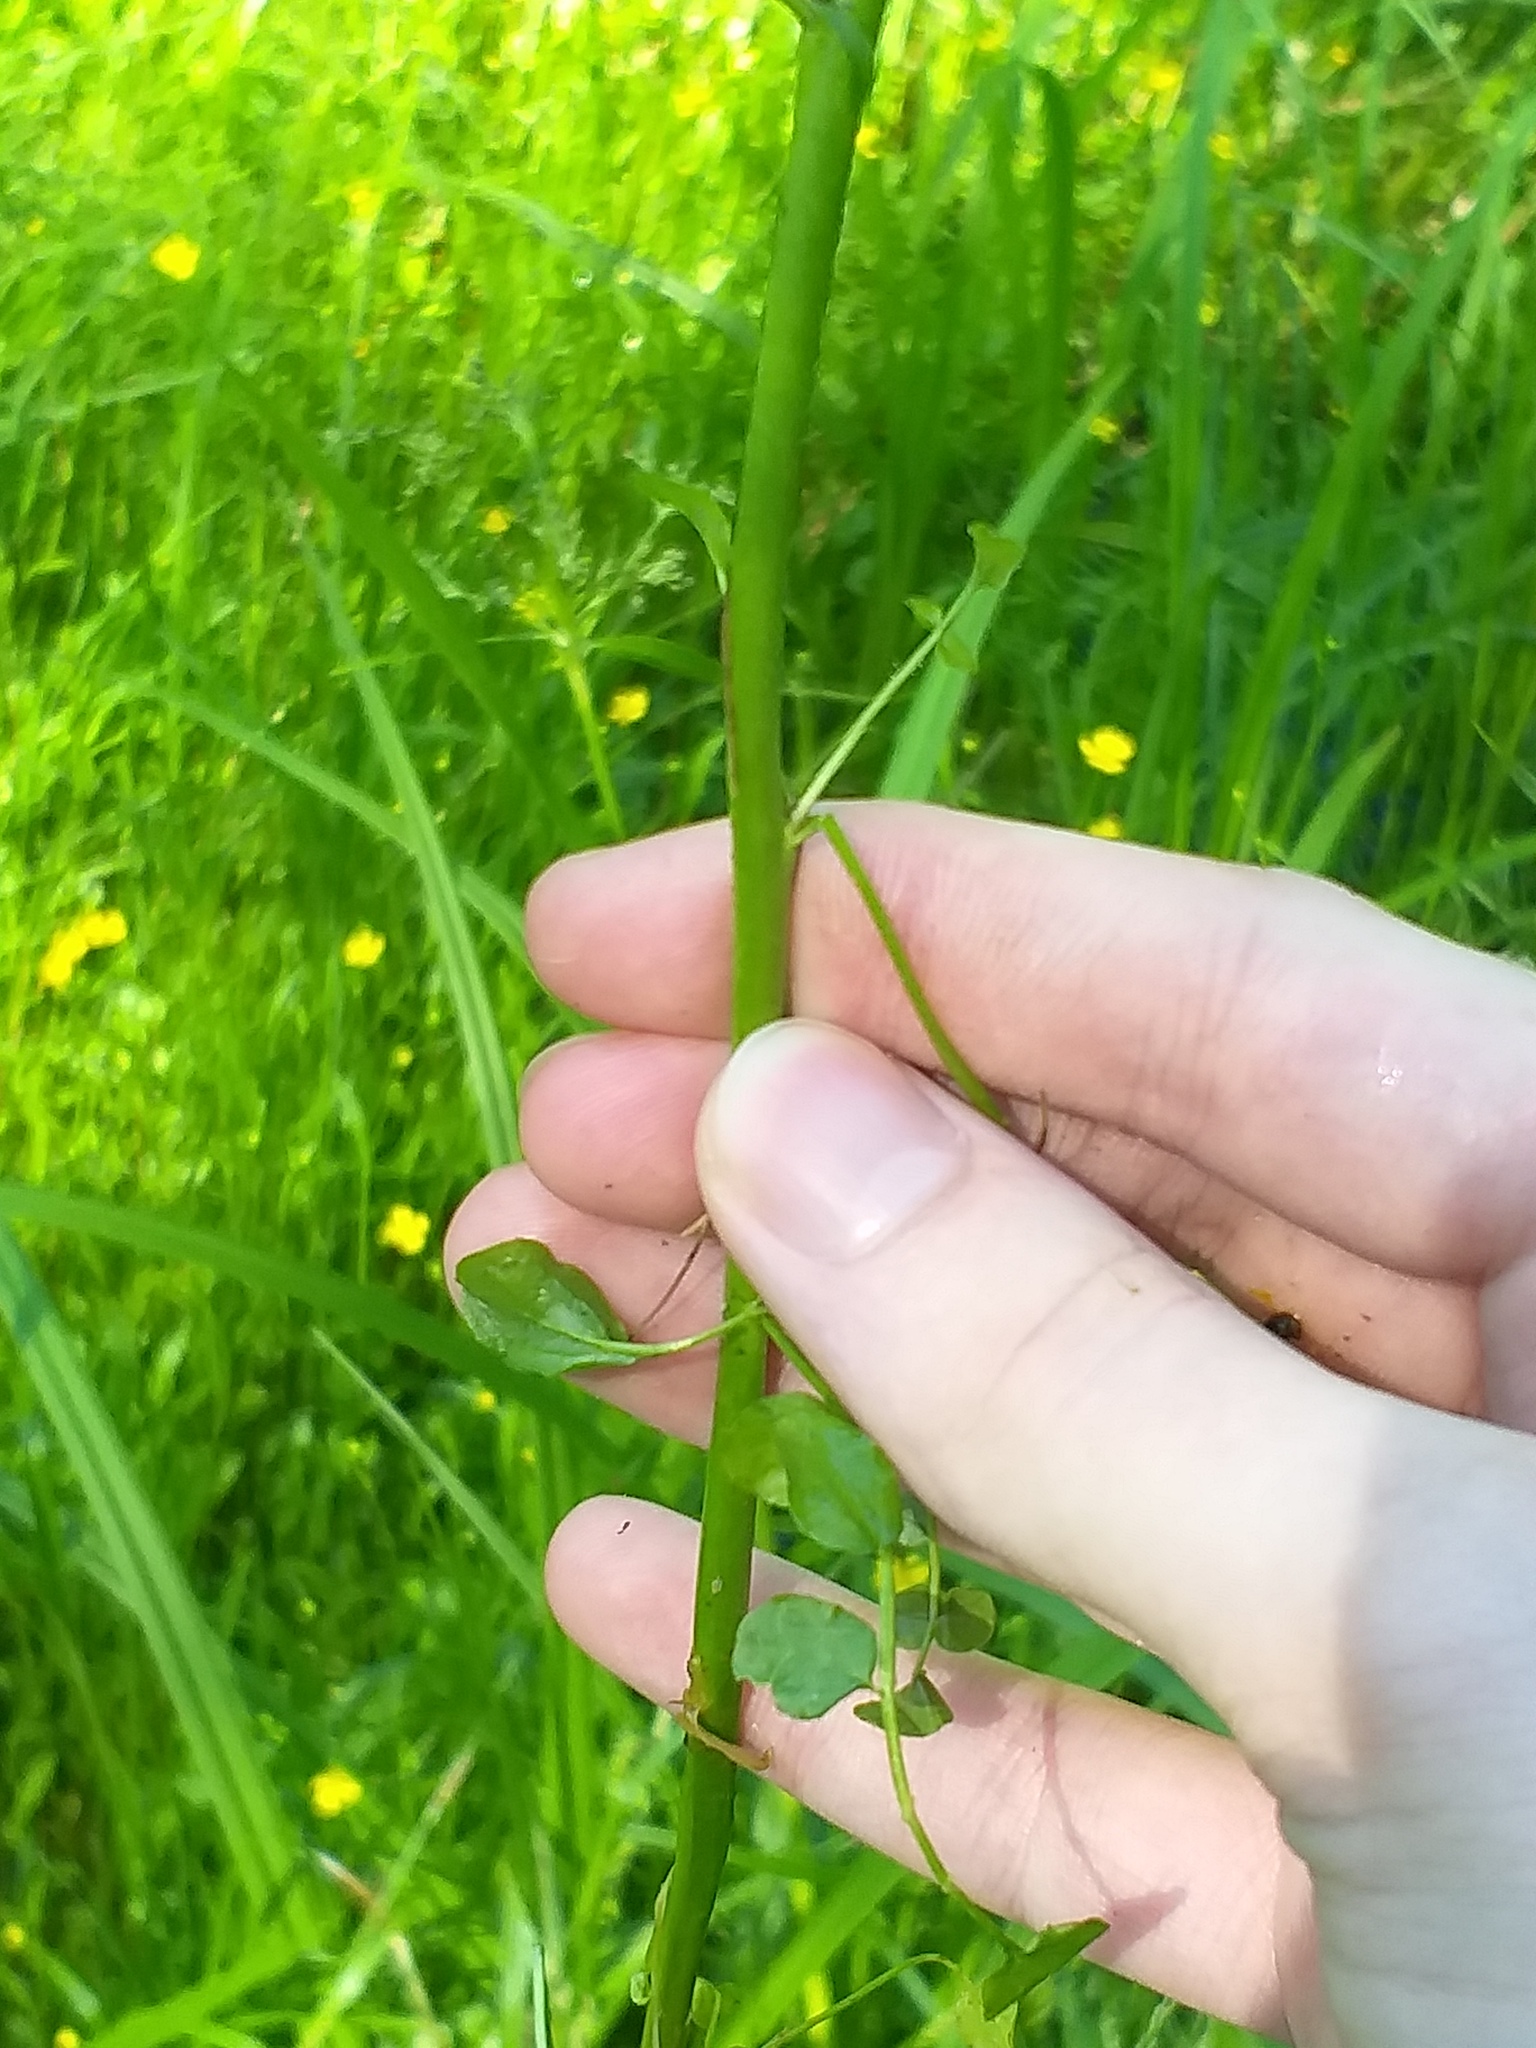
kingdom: Plantae
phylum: Tracheophyta
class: Magnoliopsida
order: Brassicales
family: Brassicaceae
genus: Cardamine
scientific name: Cardamine dentata
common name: Toothed bittercress
